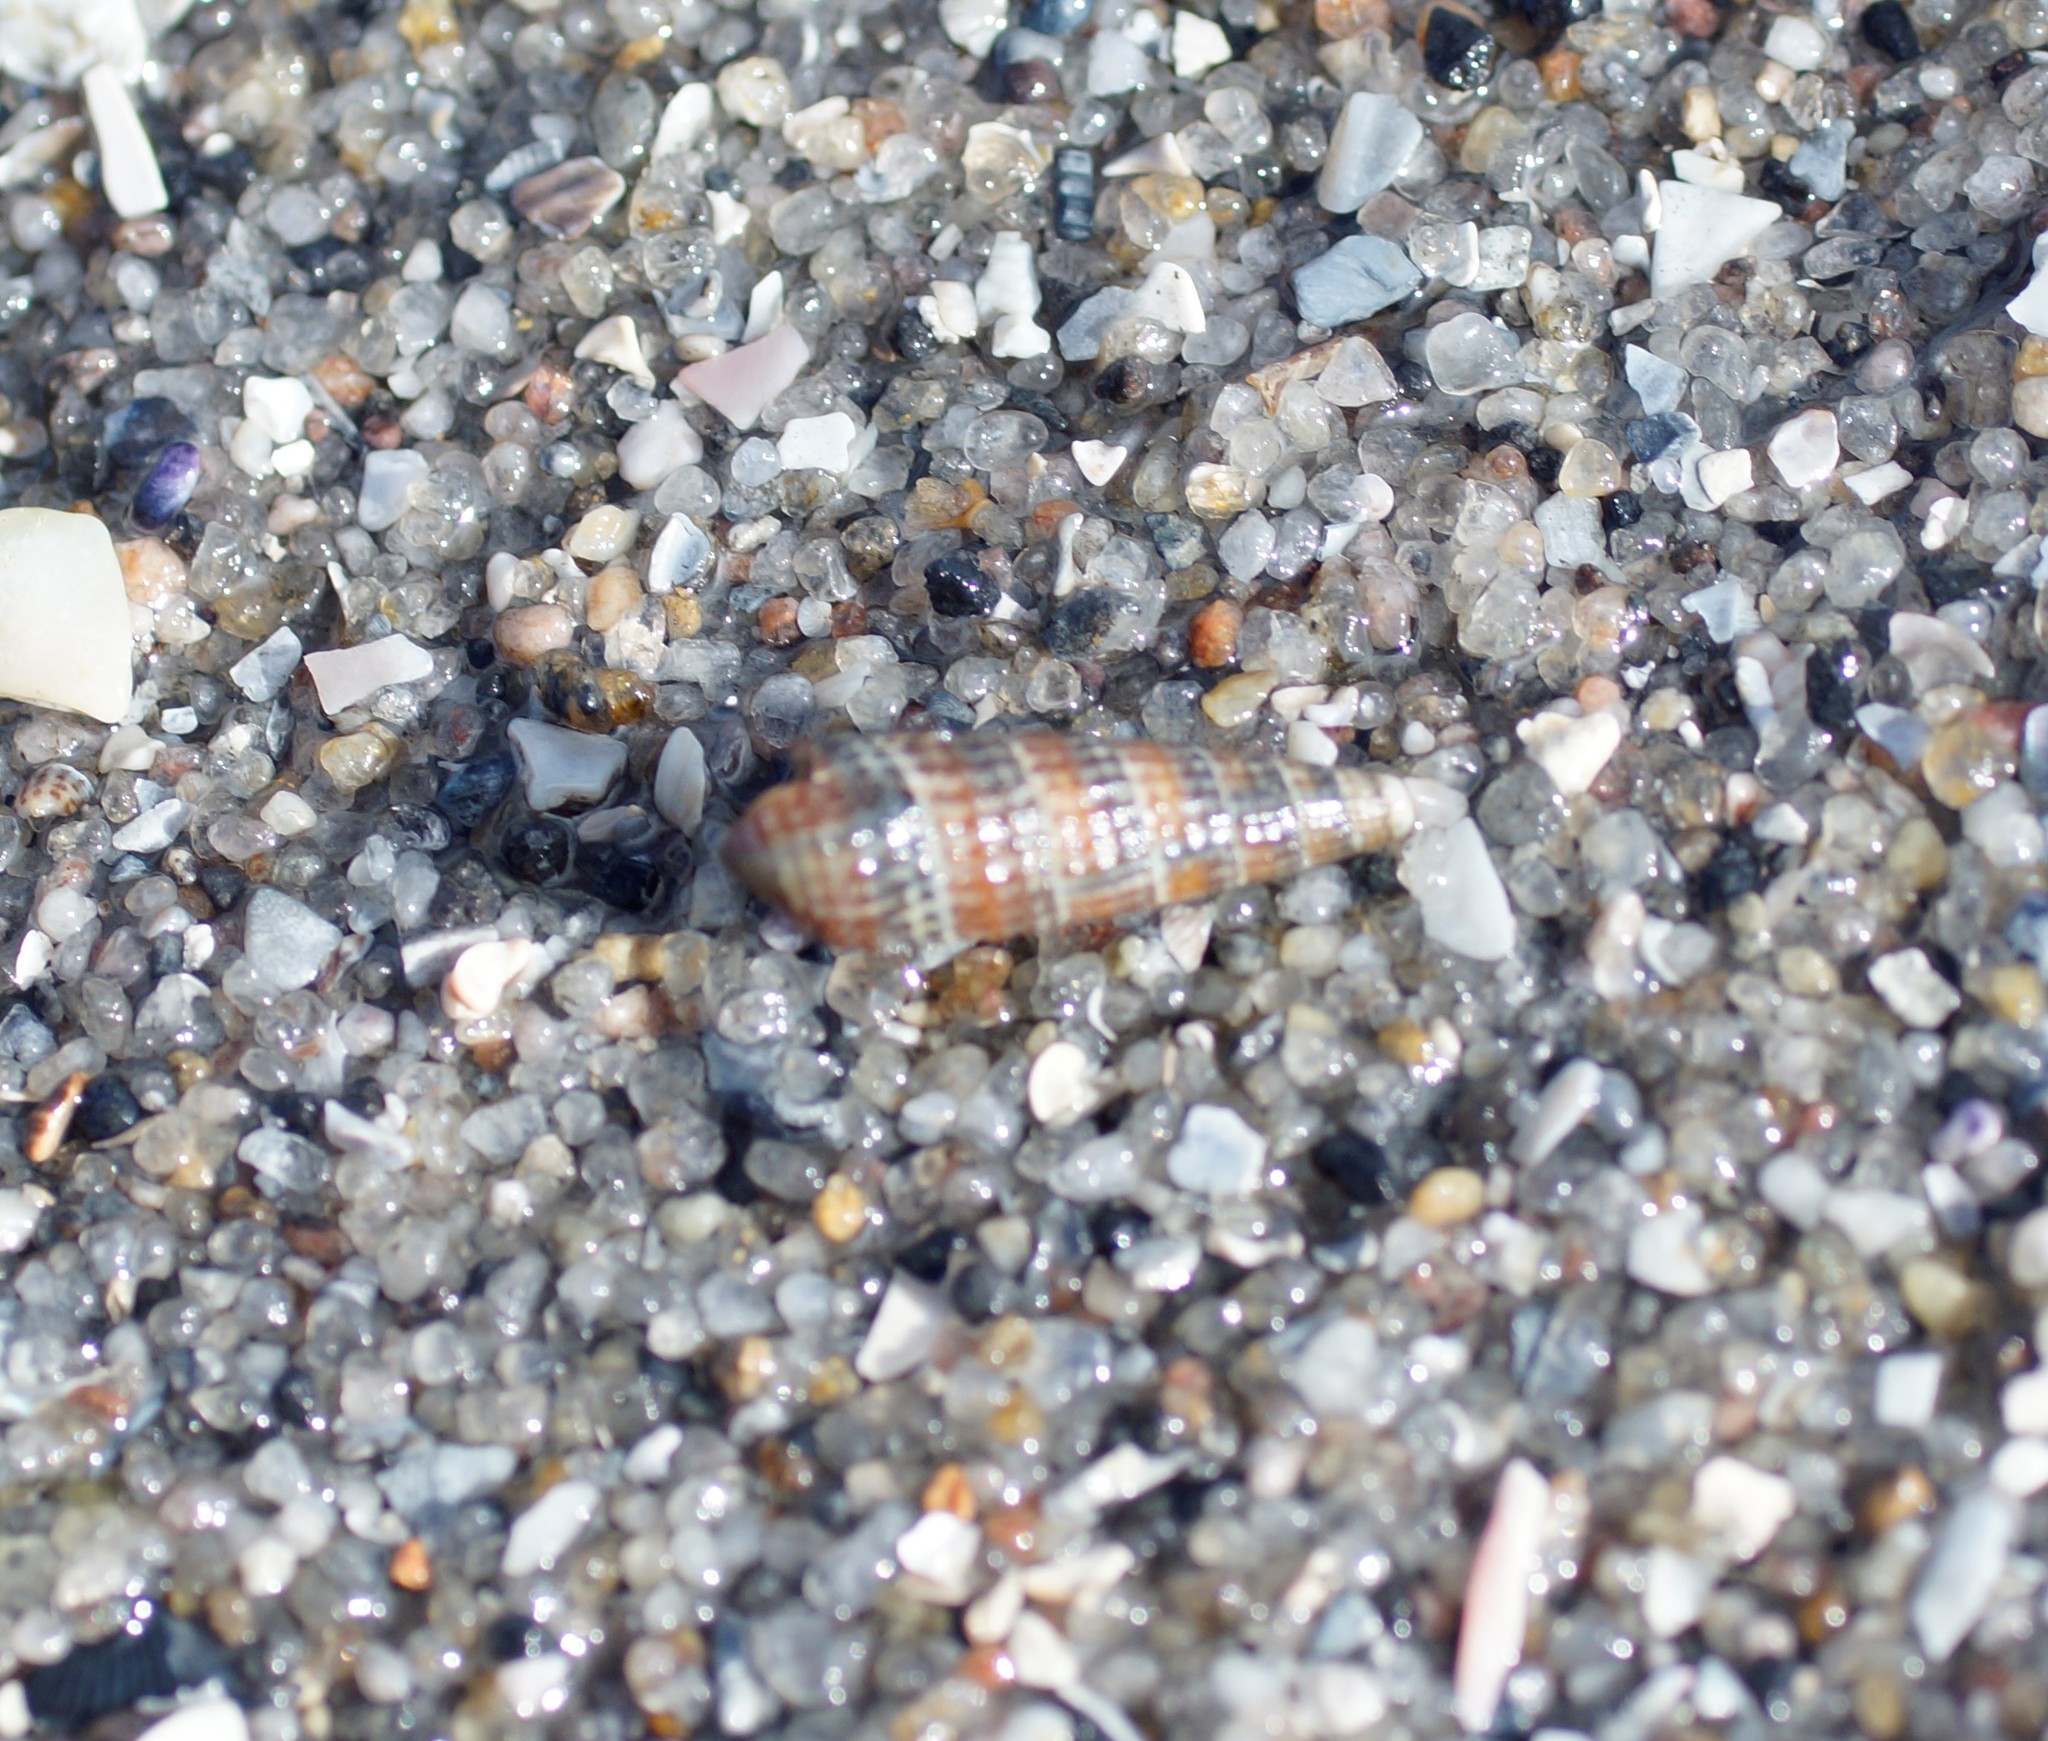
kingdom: Animalia
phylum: Mollusca
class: Gastropoda
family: Cerithiidae
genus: Cacozeliana
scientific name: Cacozeliana granarium
